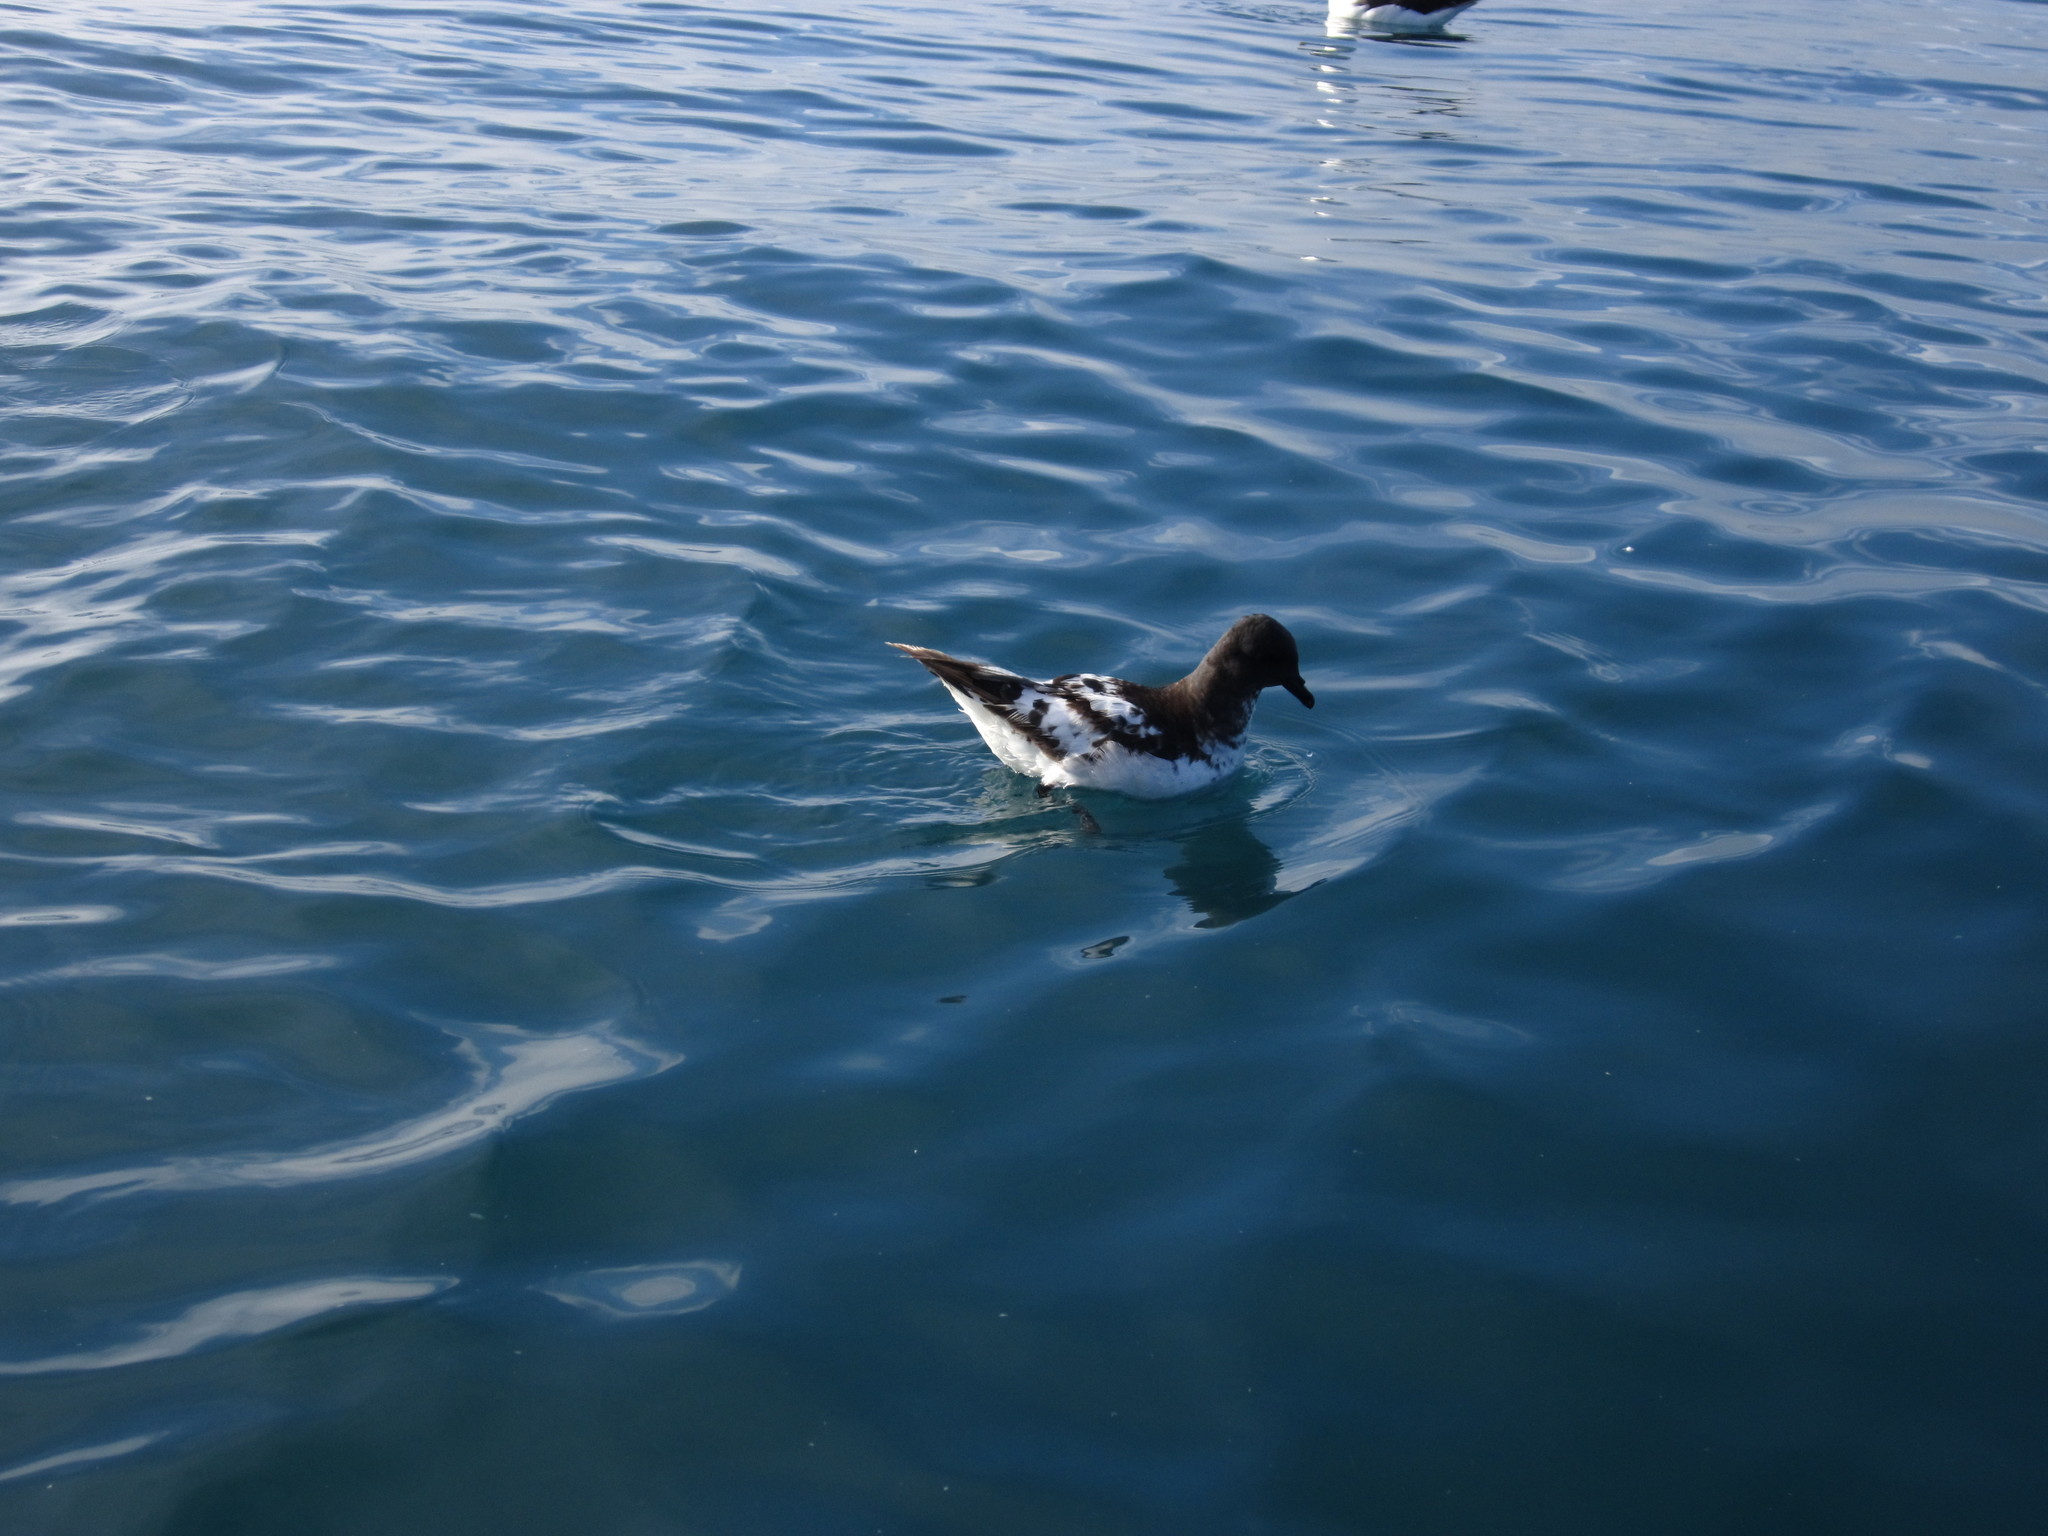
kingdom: Animalia
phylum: Chordata
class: Aves
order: Procellariiformes
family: Procellariidae
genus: Daption
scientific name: Daption capense
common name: Cape petrel
